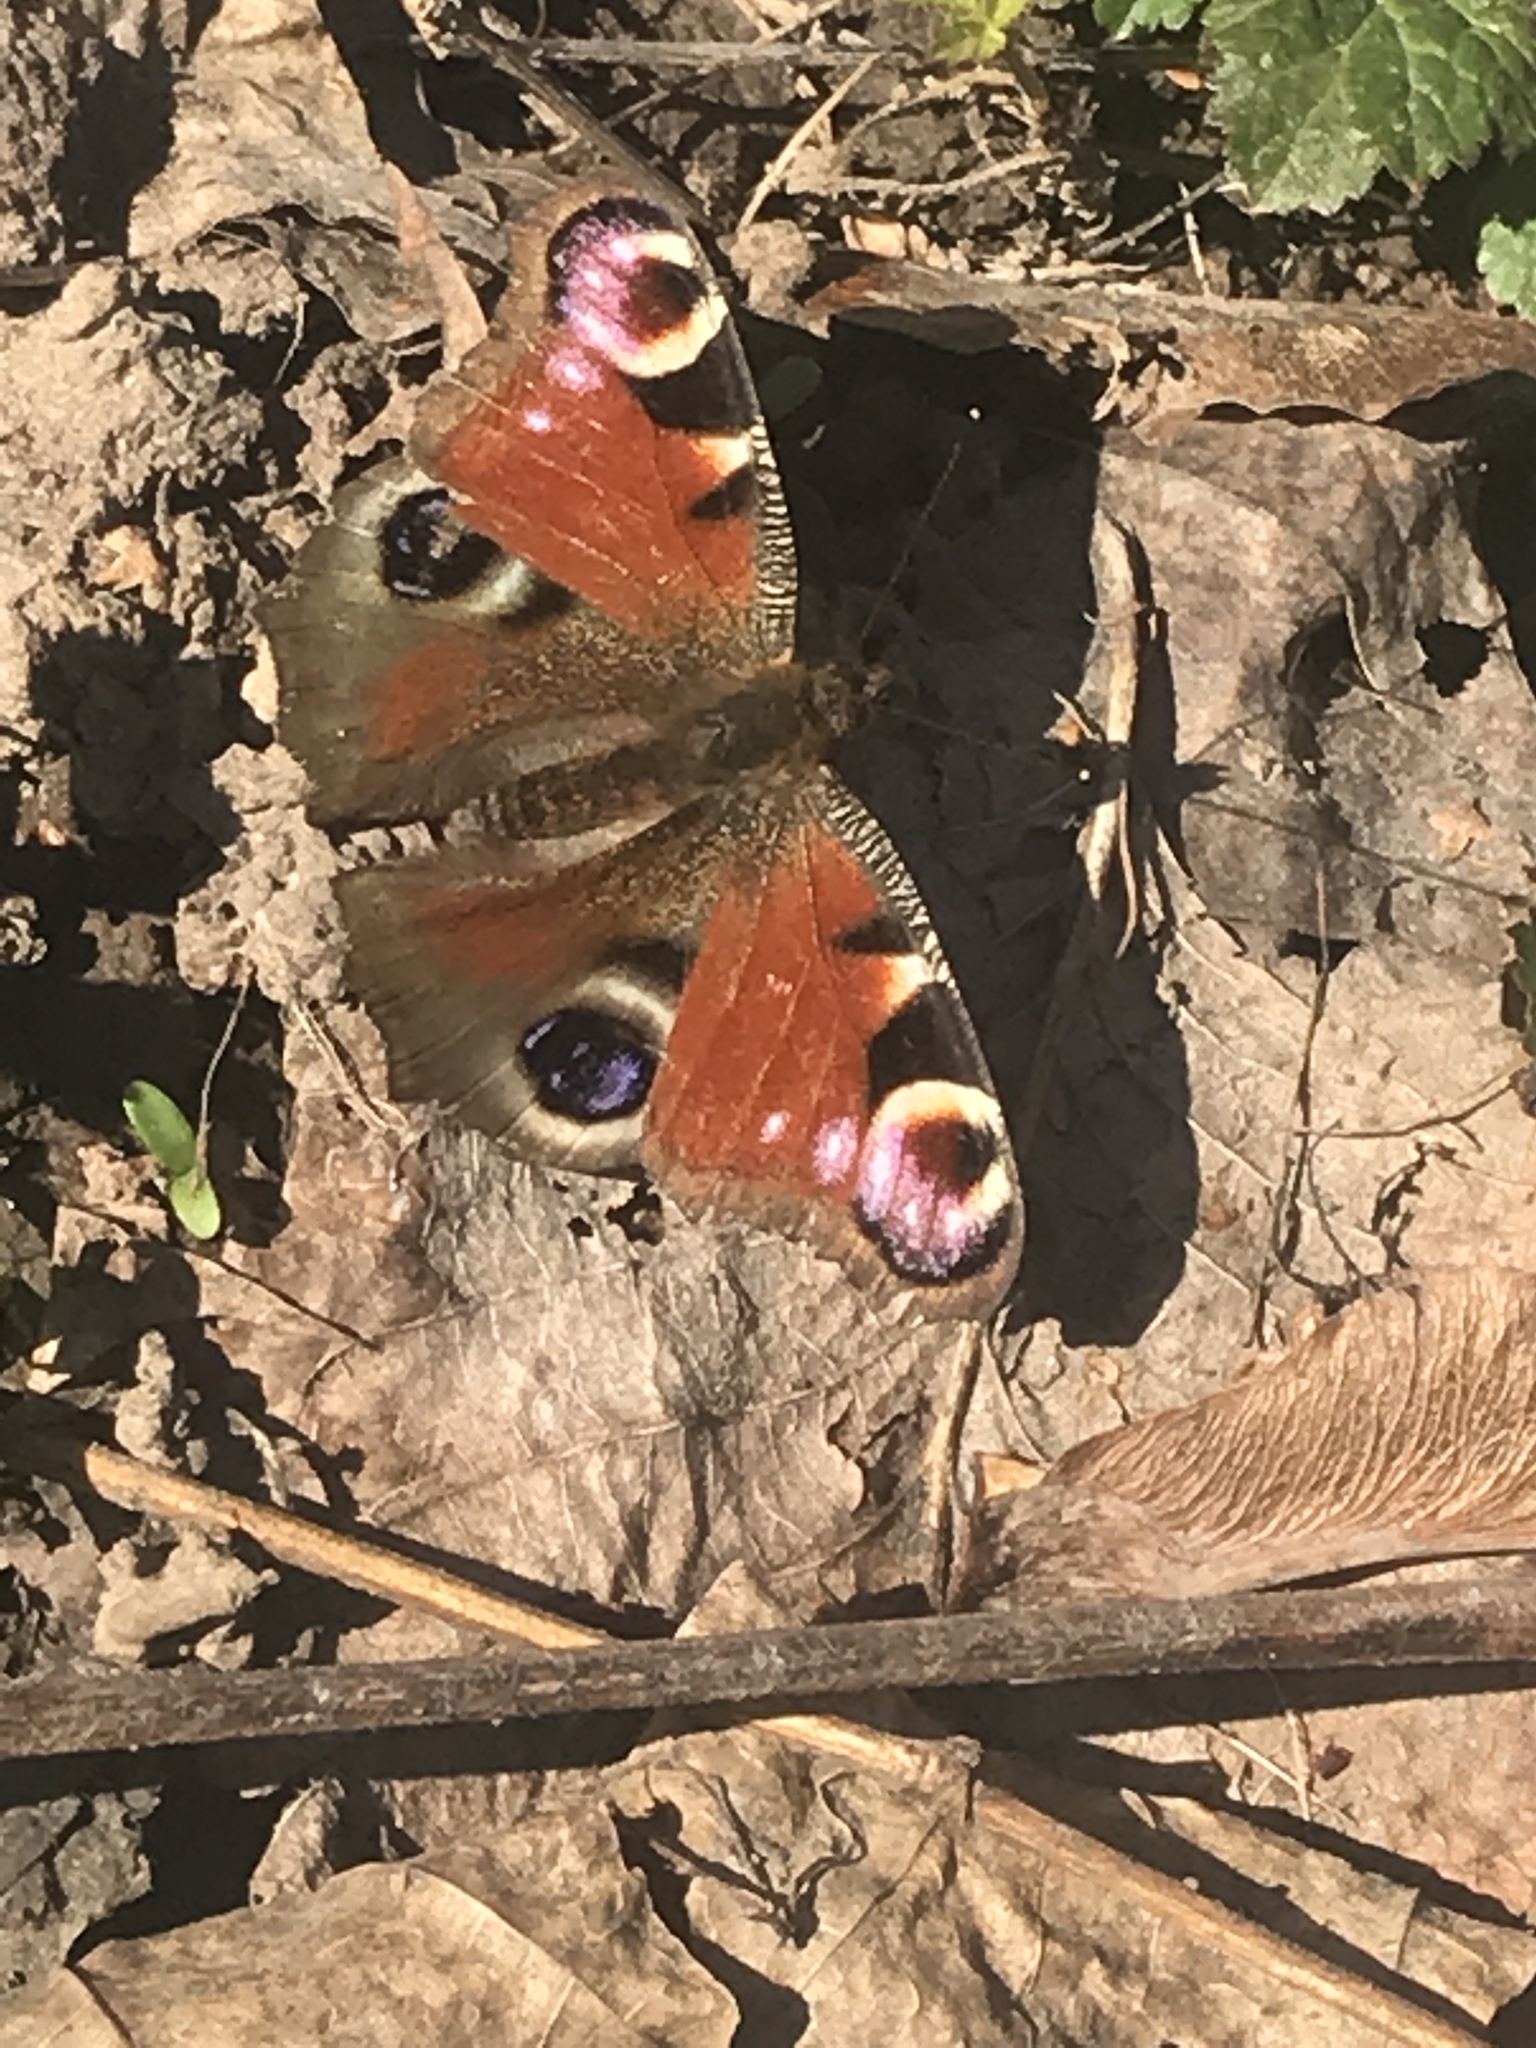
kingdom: Animalia
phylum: Arthropoda
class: Insecta
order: Lepidoptera
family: Nymphalidae
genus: Aglais
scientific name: Aglais io
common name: Peacock
